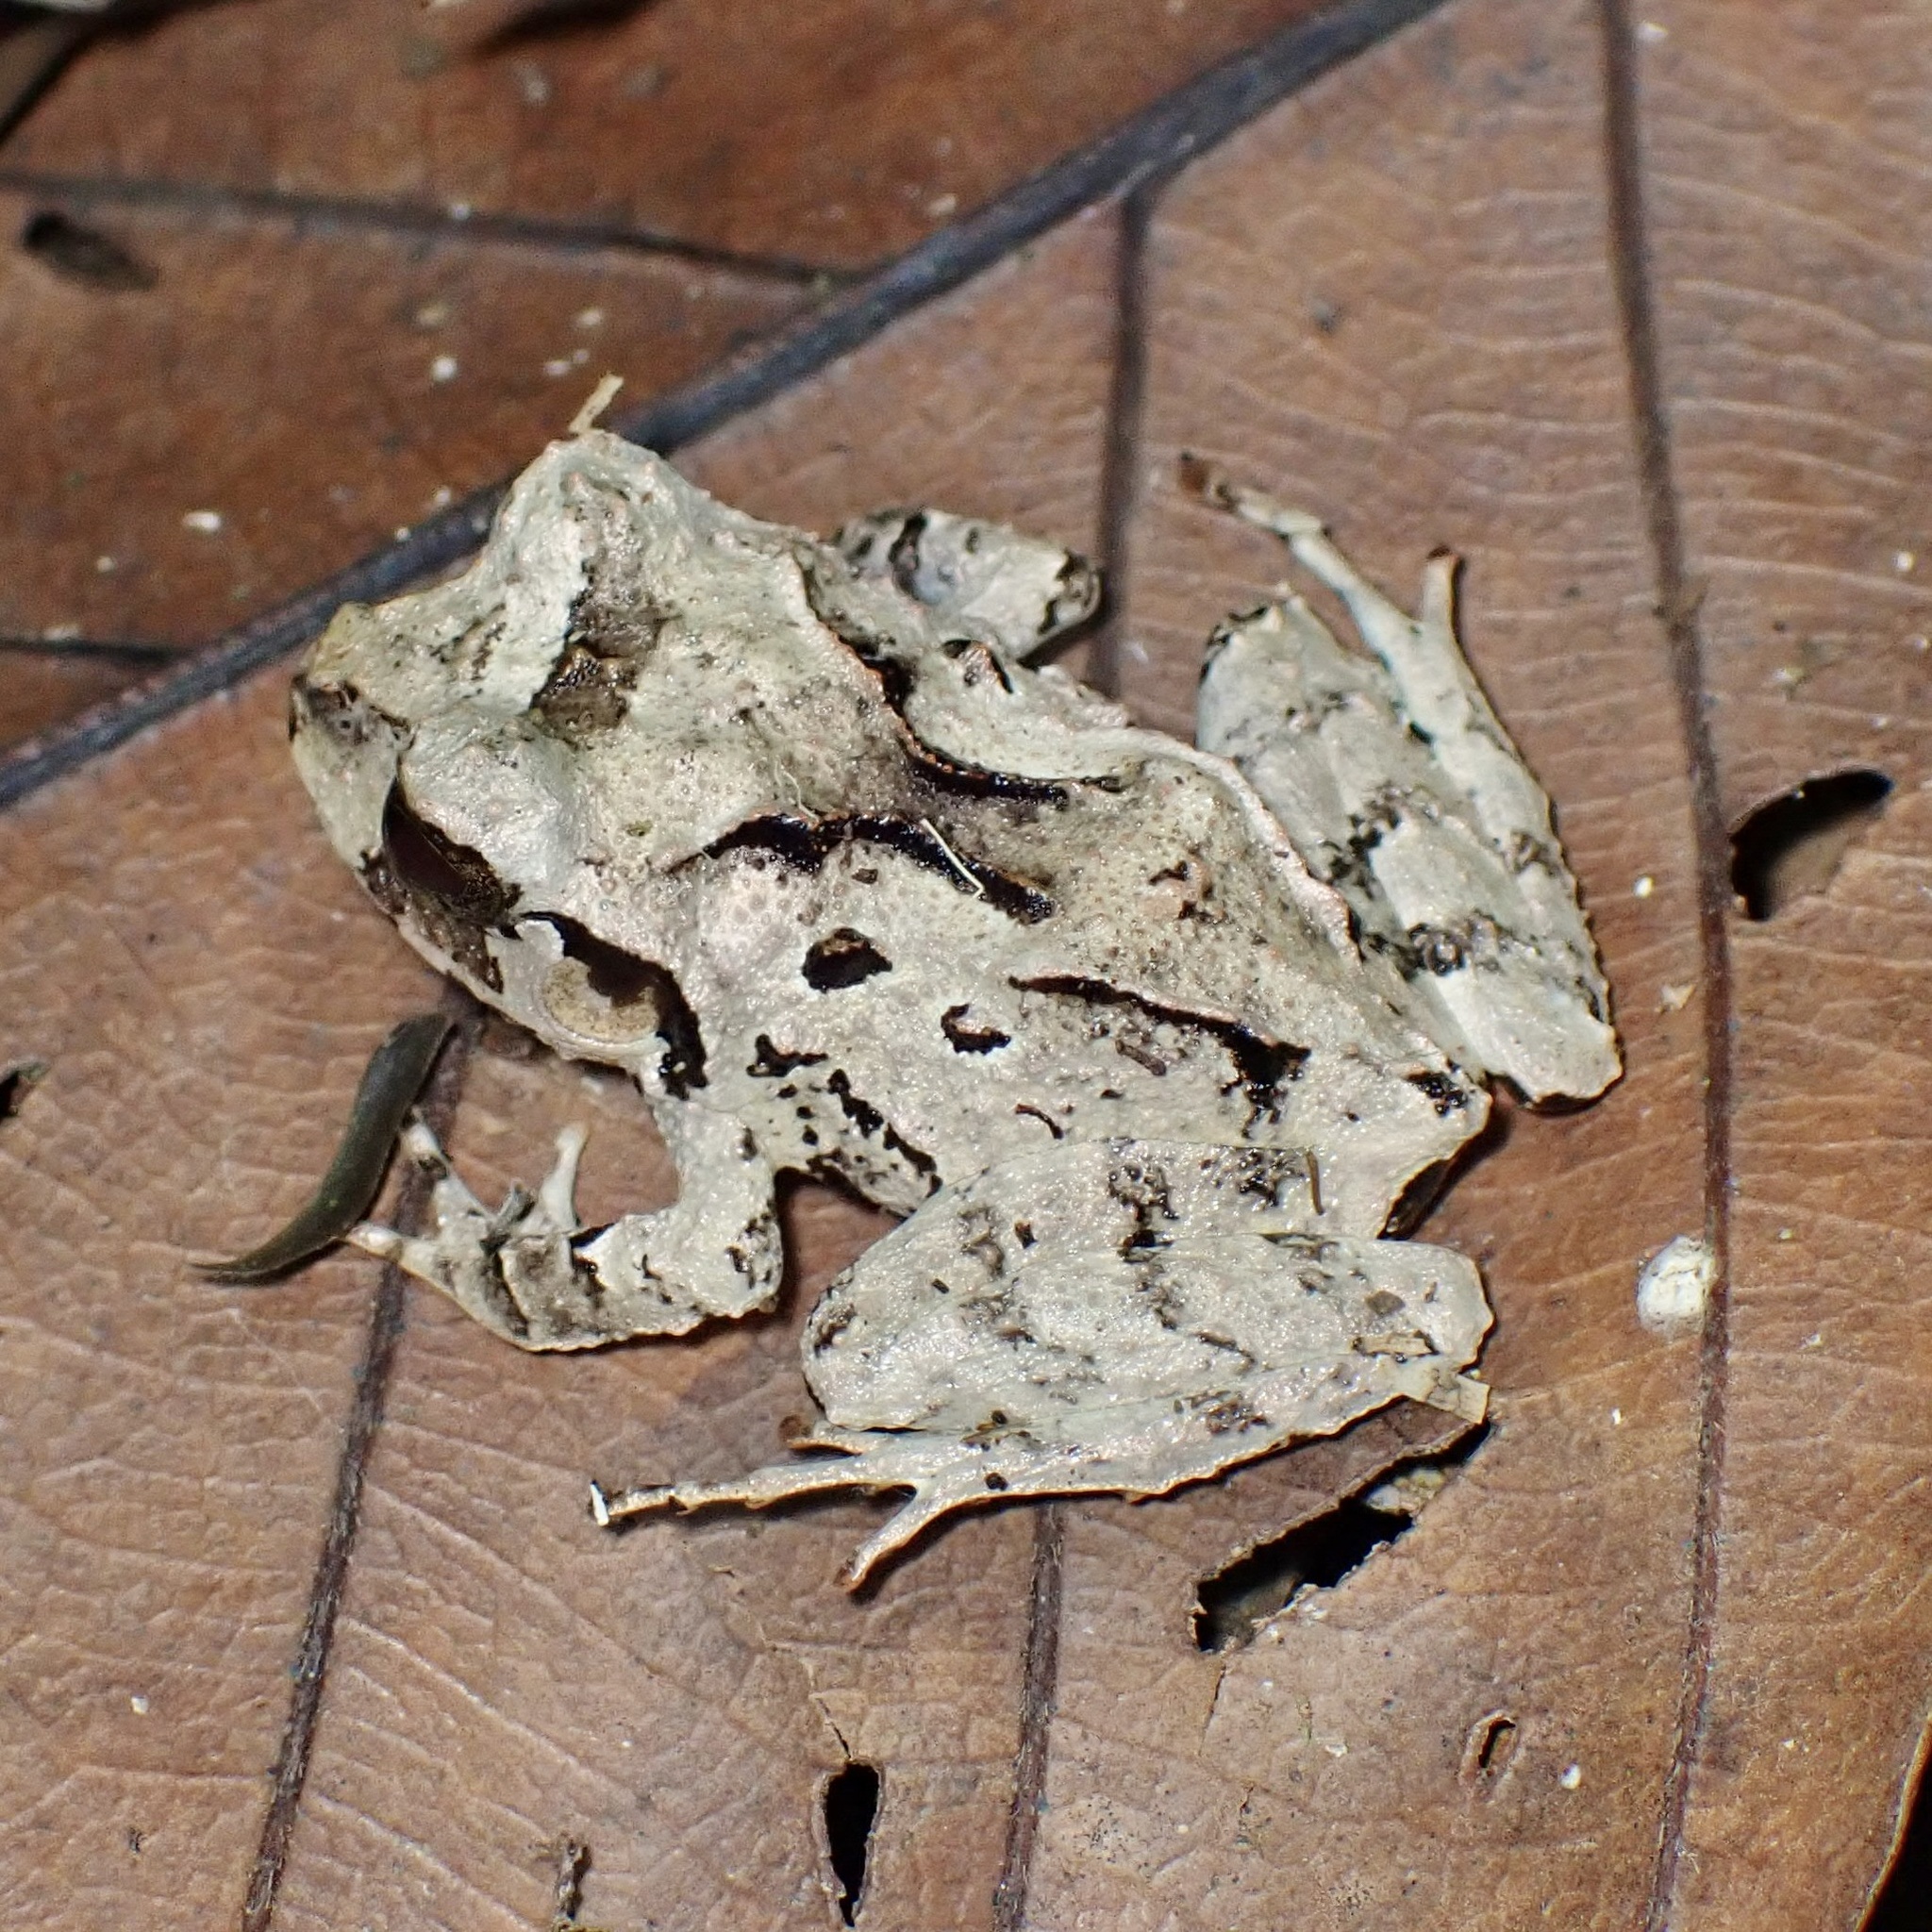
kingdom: Animalia
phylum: Chordata
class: Amphibia
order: Anura
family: Craugastoridae
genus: Craugastor
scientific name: Craugastor megacephalus
